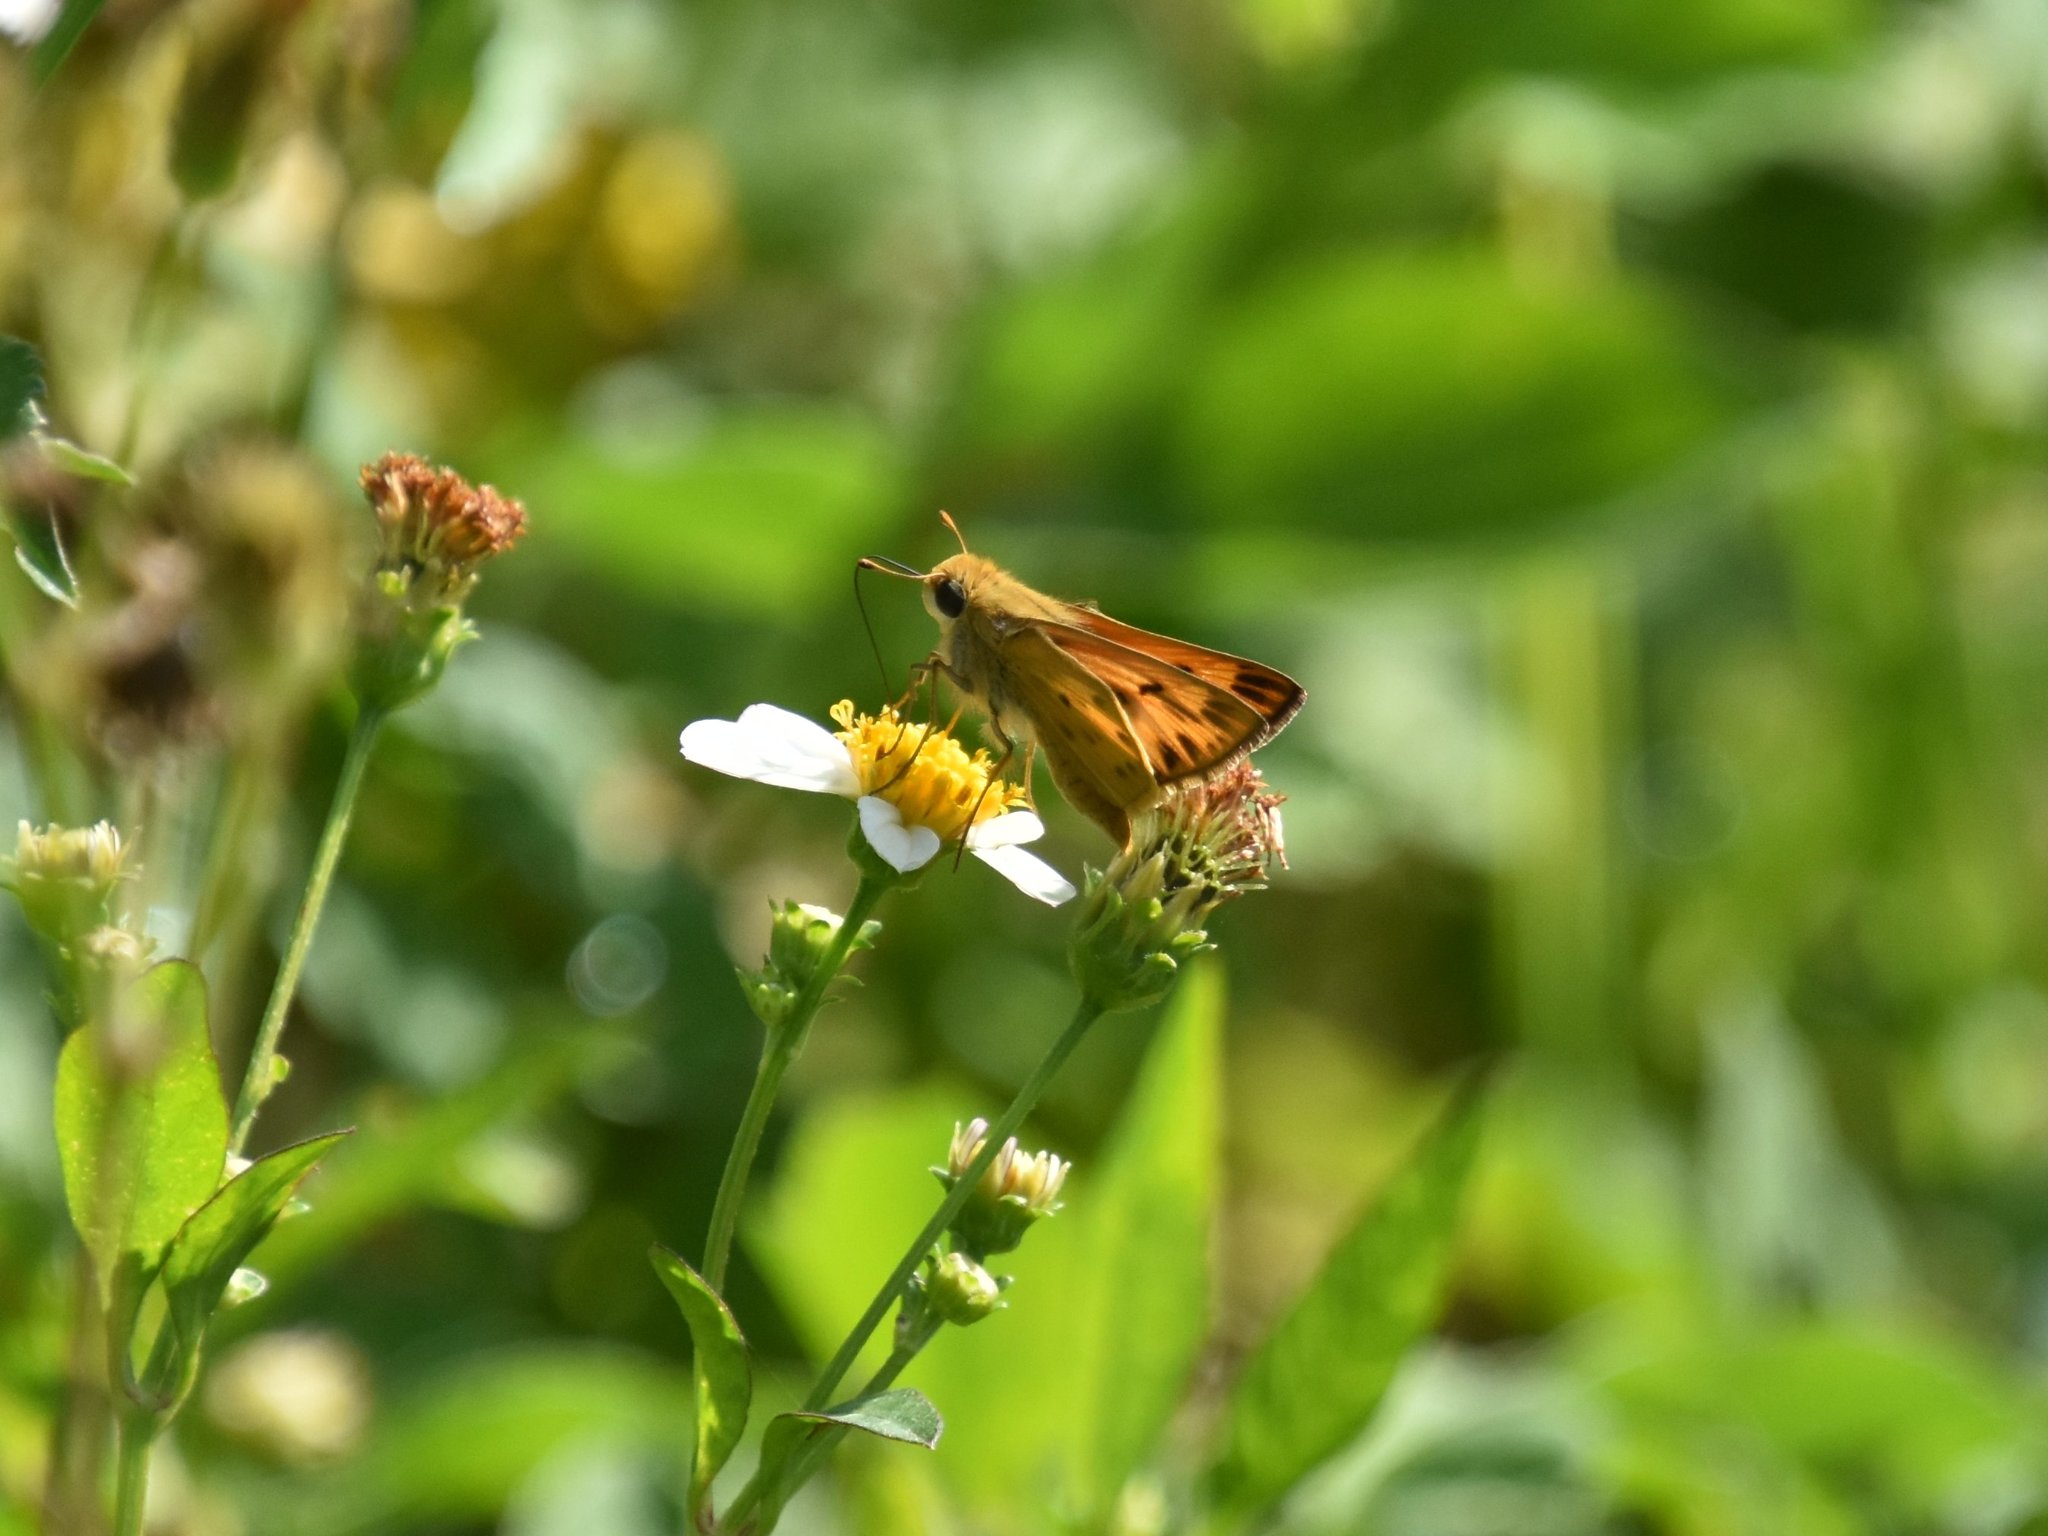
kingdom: Animalia
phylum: Arthropoda
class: Insecta
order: Lepidoptera
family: Hesperiidae
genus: Hylephila
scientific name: Hylephila phyleus
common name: Fiery skipper
